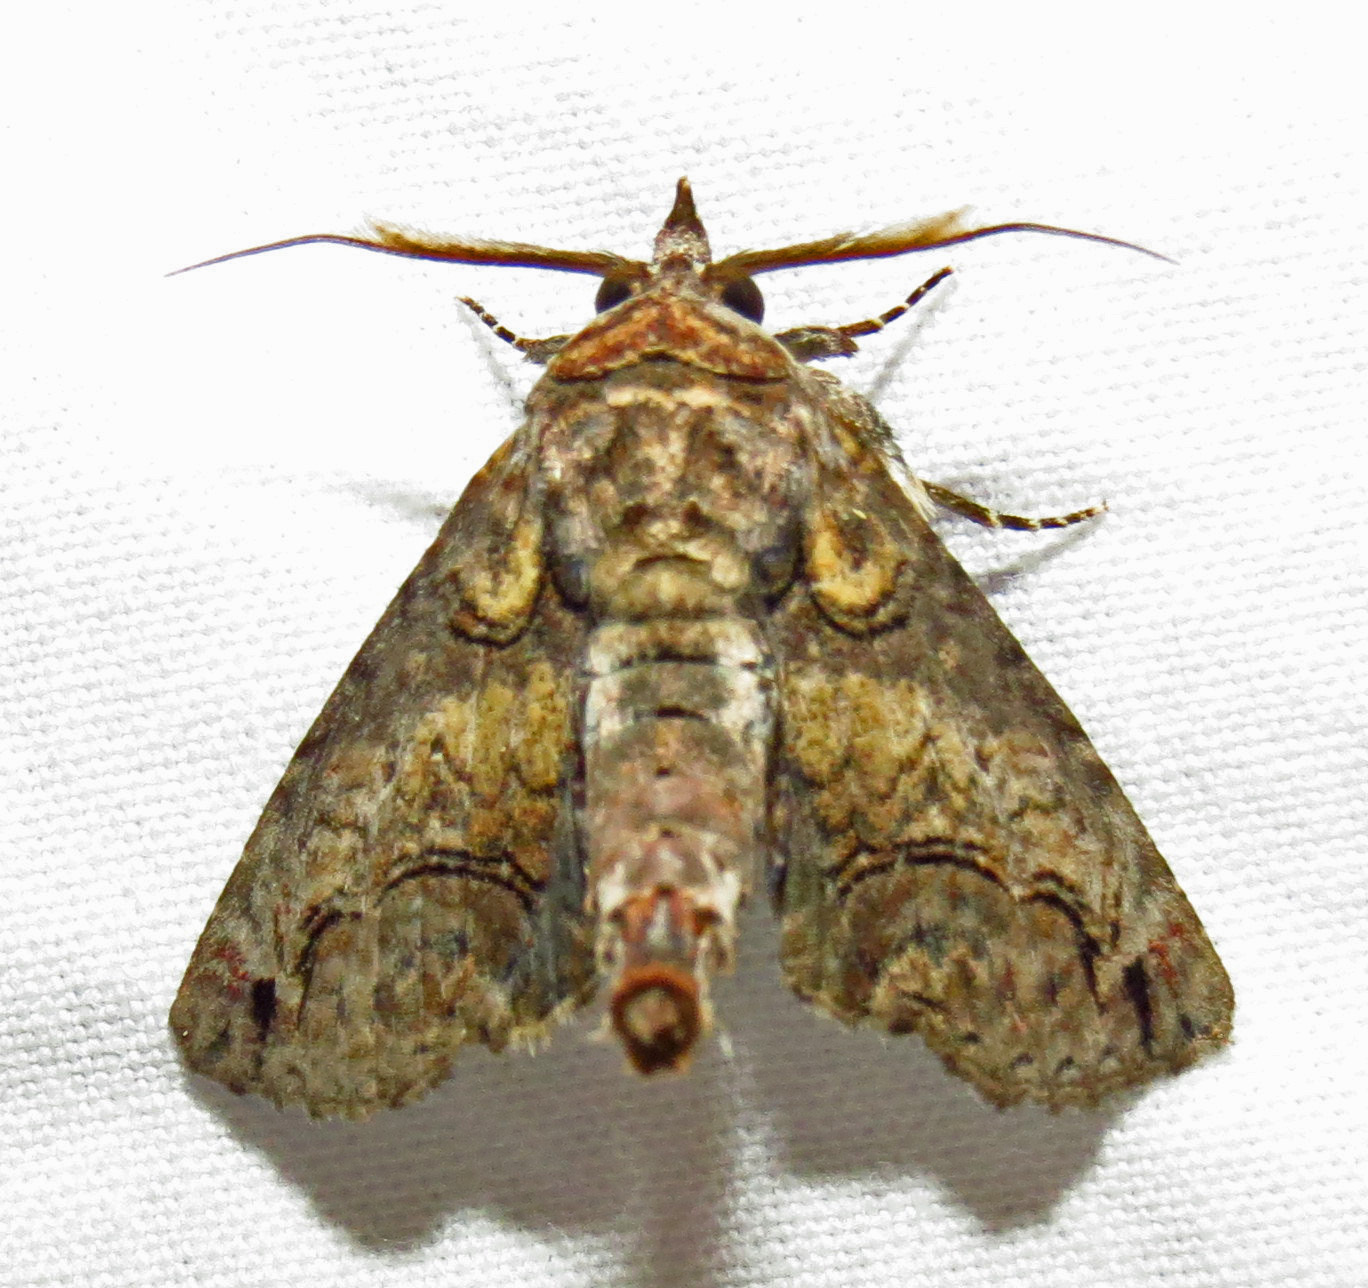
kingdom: Animalia
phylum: Arthropoda
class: Insecta
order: Lepidoptera
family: Euteliidae
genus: Paectes
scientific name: Paectes abrostoloides
